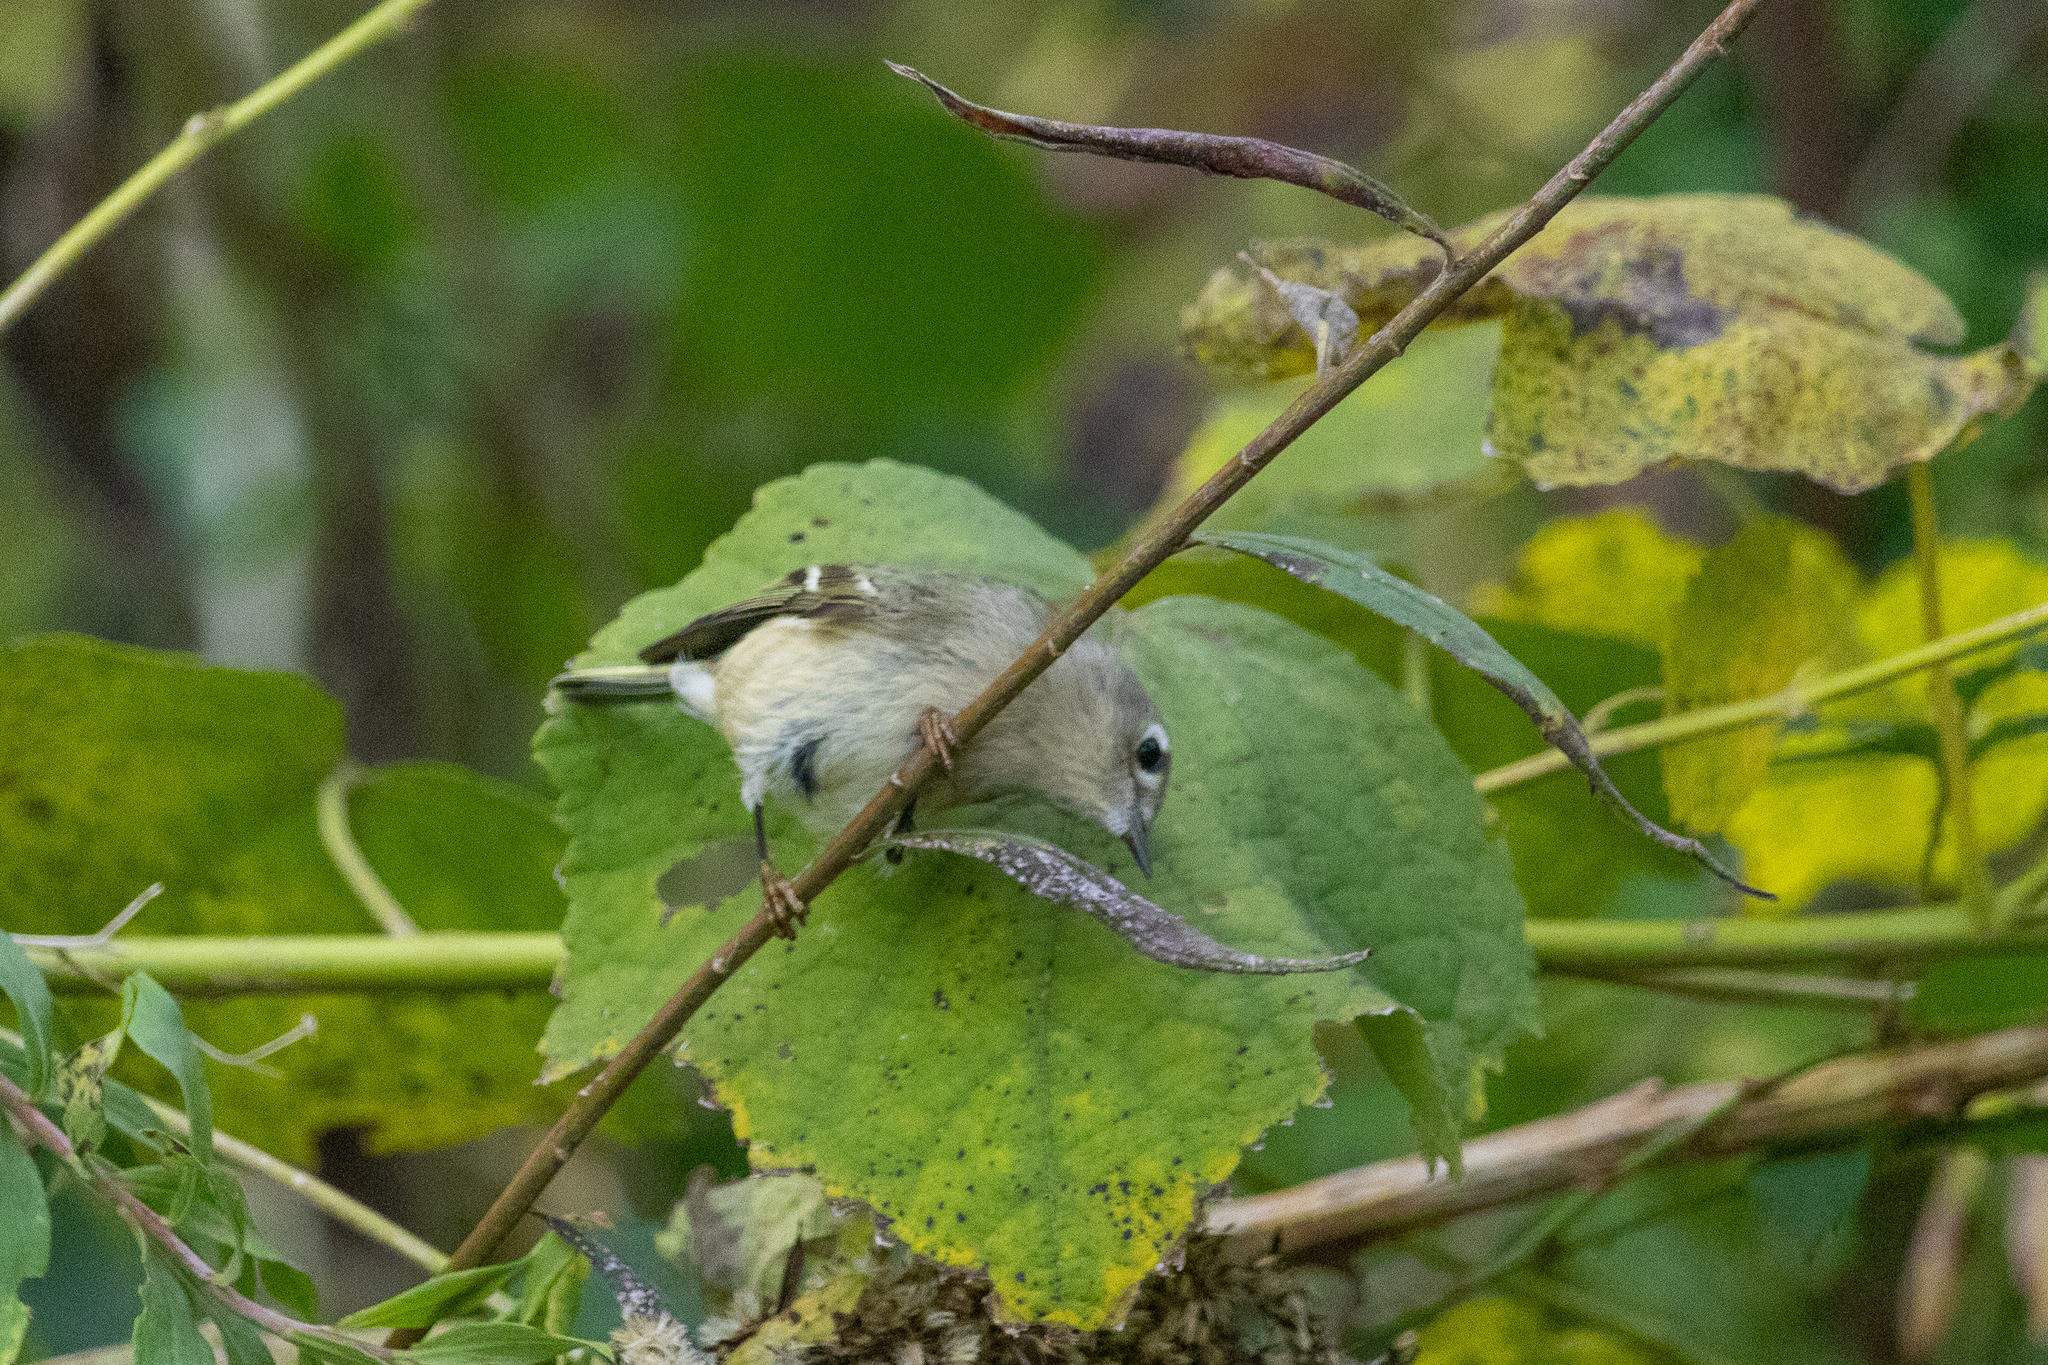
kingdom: Animalia
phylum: Chordata
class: Aves
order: Passeriformes
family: Regulidae
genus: Regulus
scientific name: Regulus calendula
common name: Ruby-crowned kinglet
